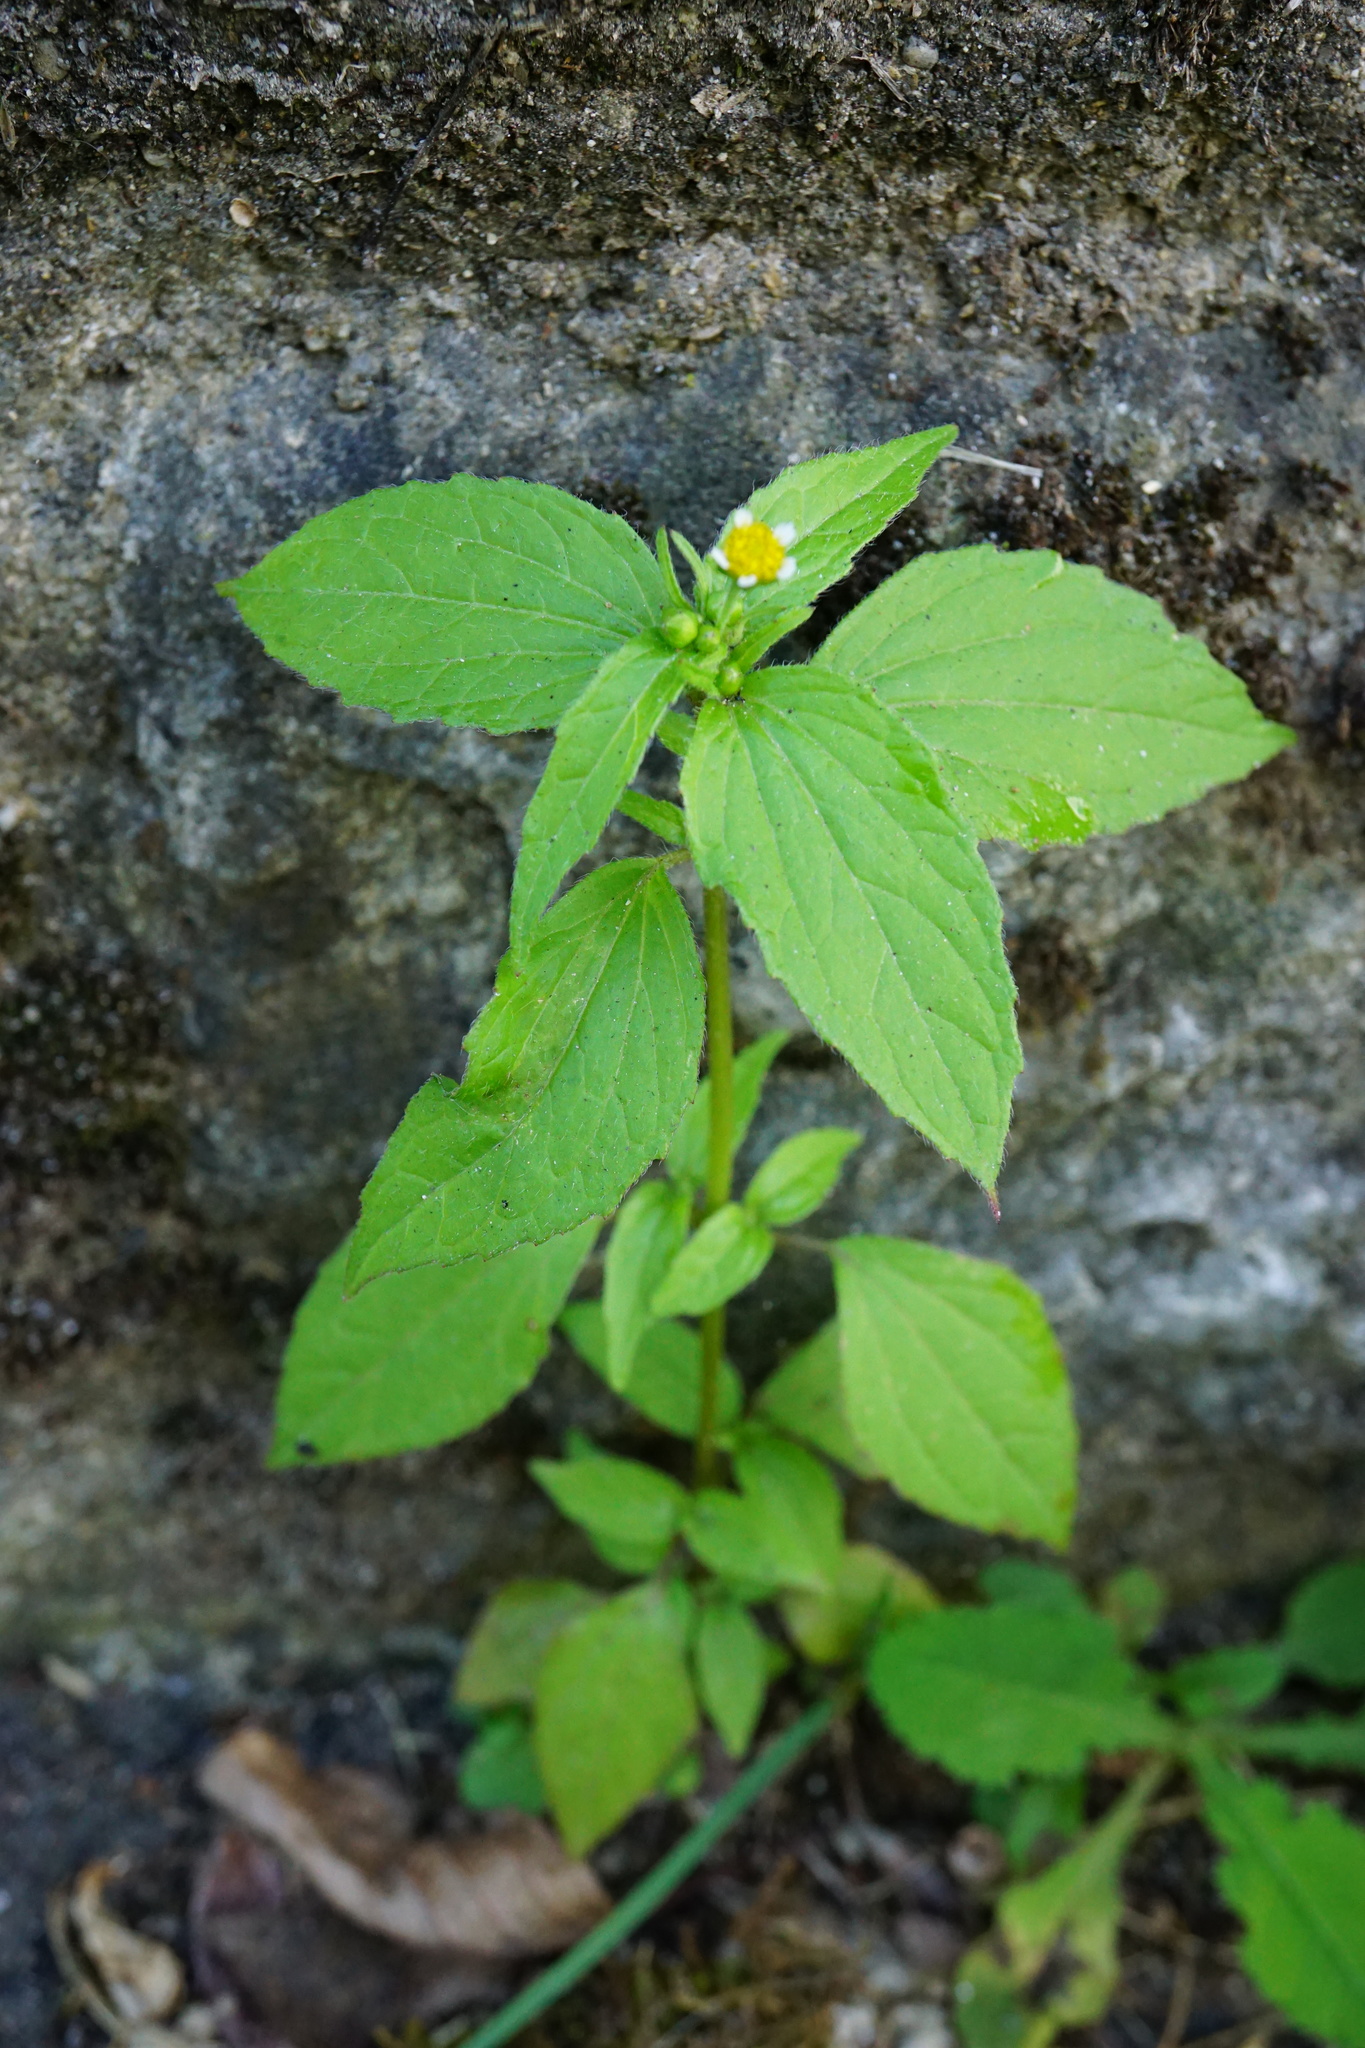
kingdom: Plantae
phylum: Tracheophyta
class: Magnoliopsida
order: Asterales
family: Asteraceae
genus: Galinsoga
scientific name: Galinsoga parviflora
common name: Gallant soldier
